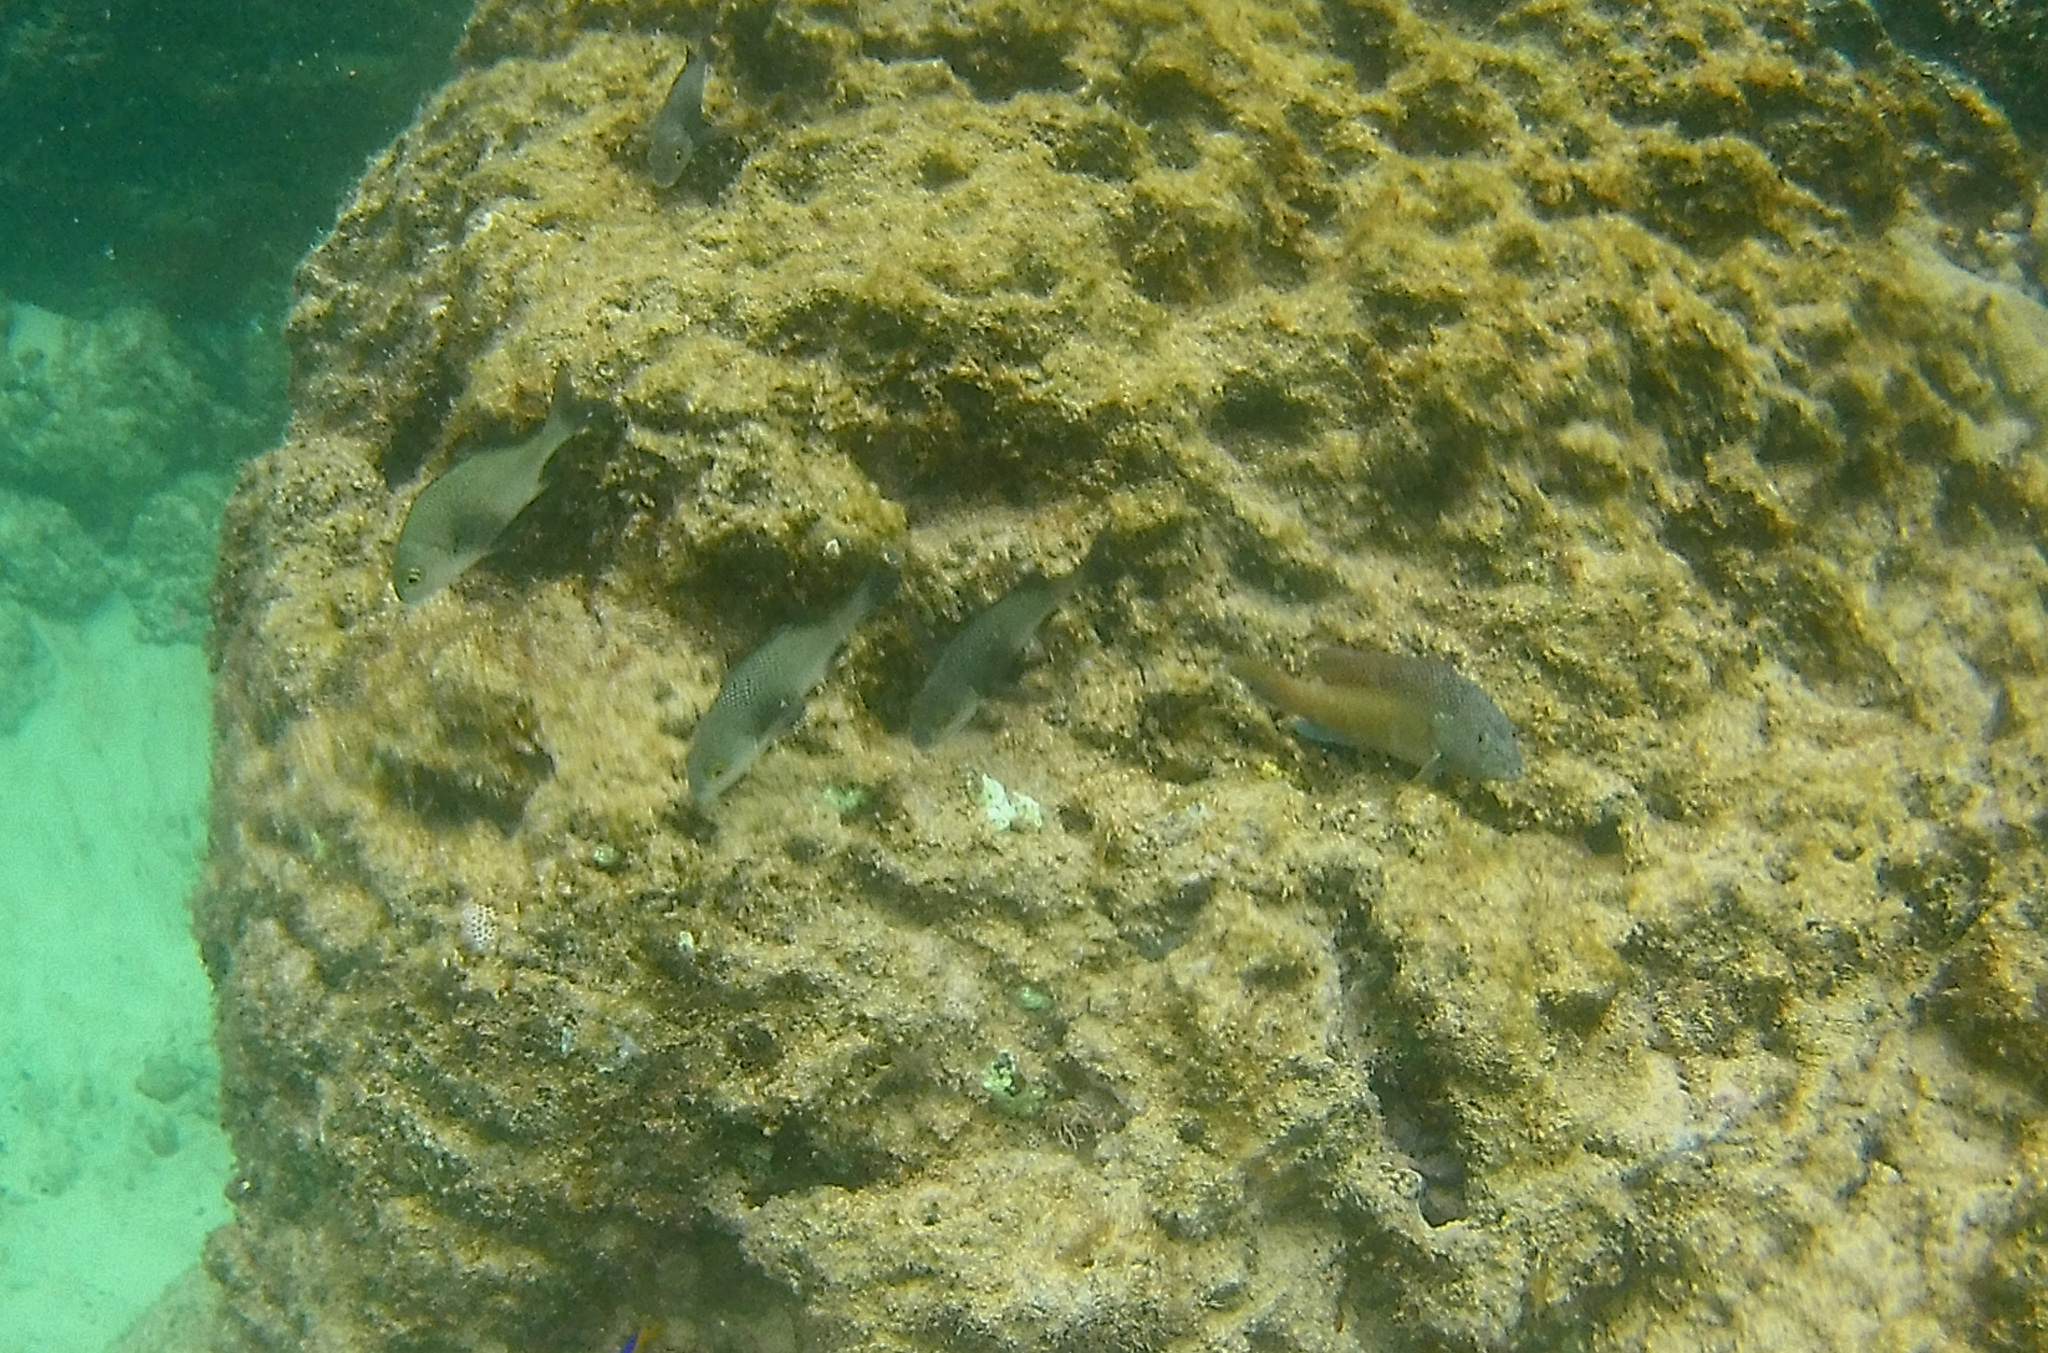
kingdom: Animalia
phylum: Chordata
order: Perciformes
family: Serranidae
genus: Cephalopholis
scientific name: Cephalopholis fulva
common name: Butterfish
